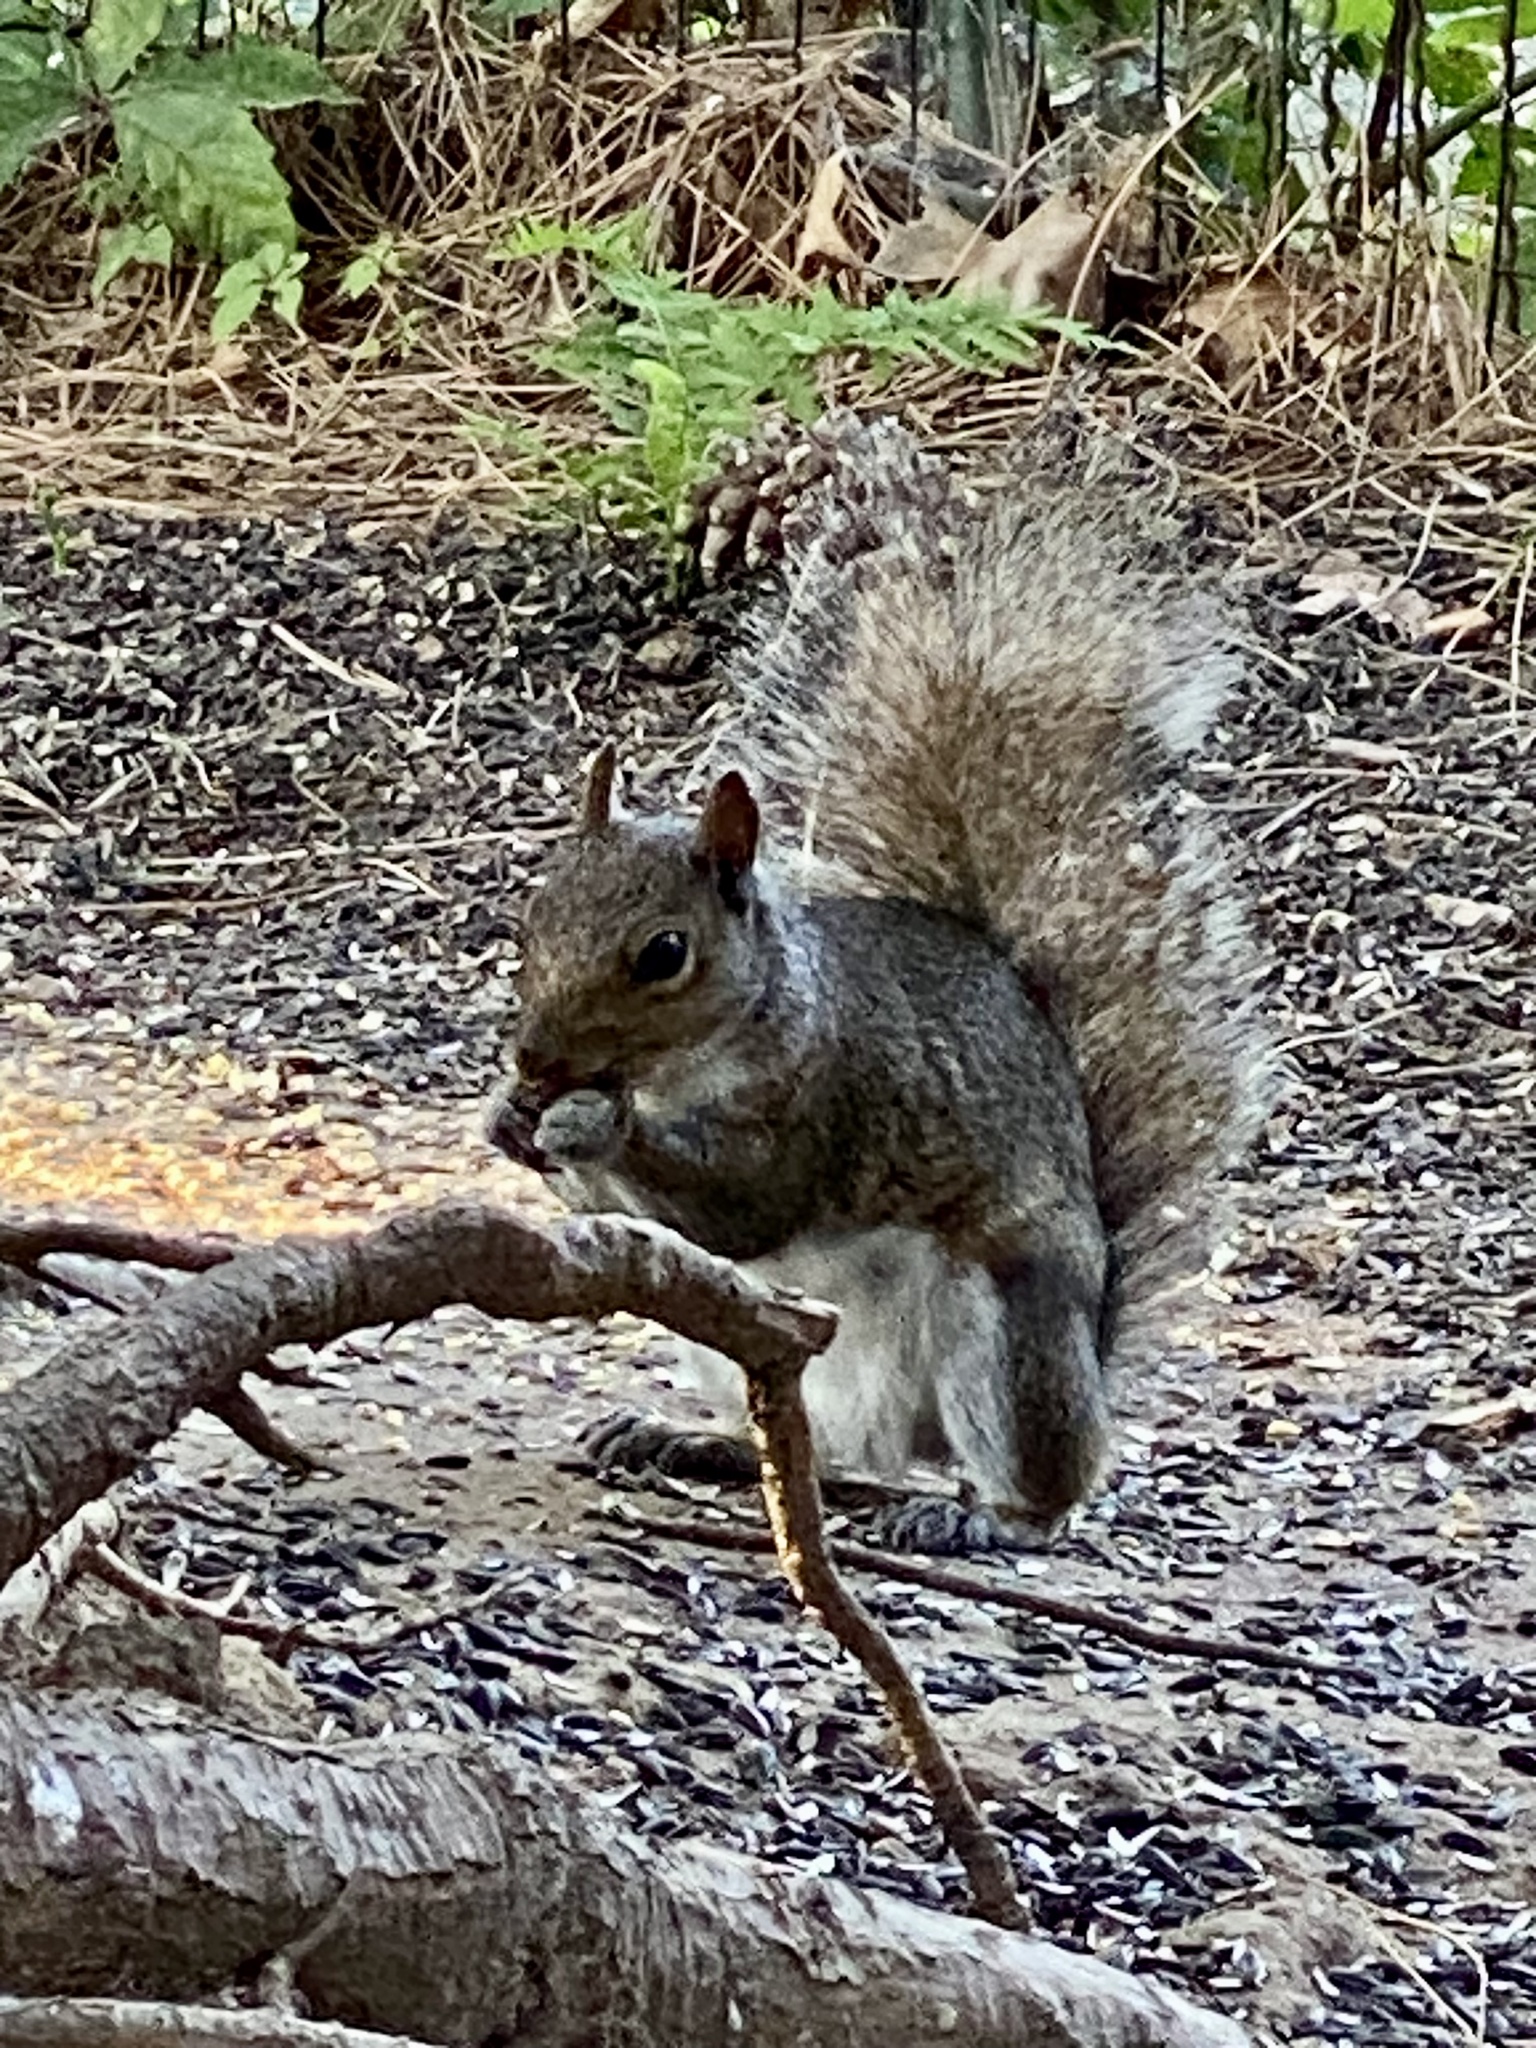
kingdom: Animalia
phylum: Chordata
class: Mammalia
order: Rodentia
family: Sciuridae
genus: Sciurus
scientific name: Sciurus carolinensis
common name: Eastern gray squirrel
